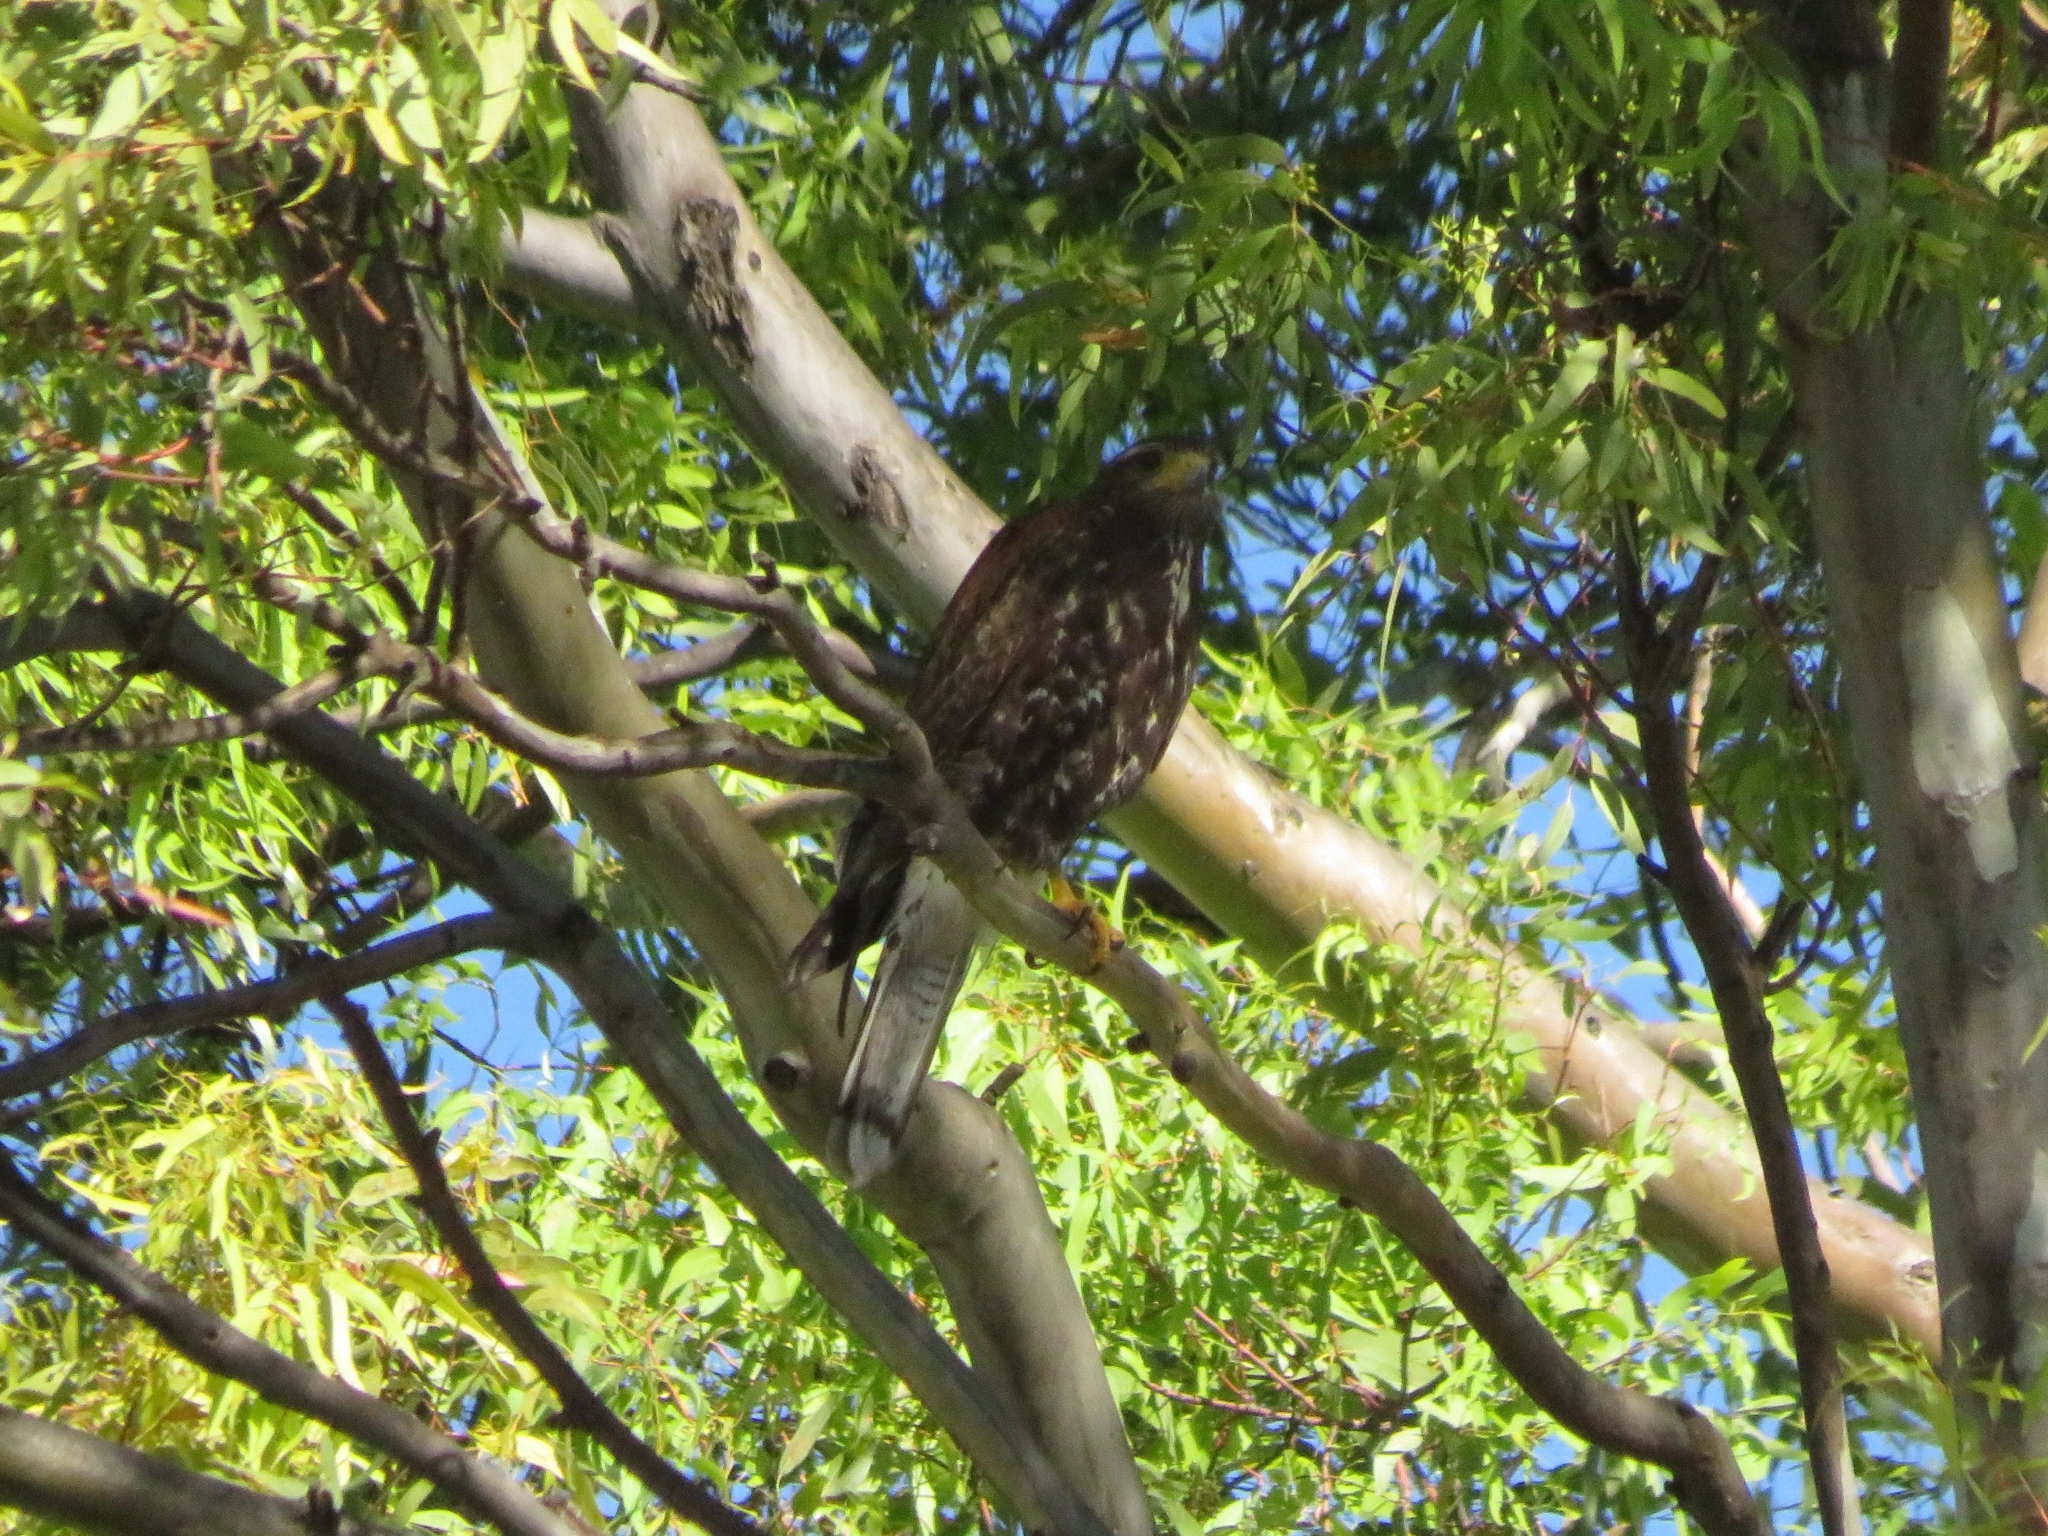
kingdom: Animalia
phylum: Chordata
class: Aves
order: Accipitriformes
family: Accipitridae
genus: Parabuteo
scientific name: Parabuteo unicinctus
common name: Harris's hawk
